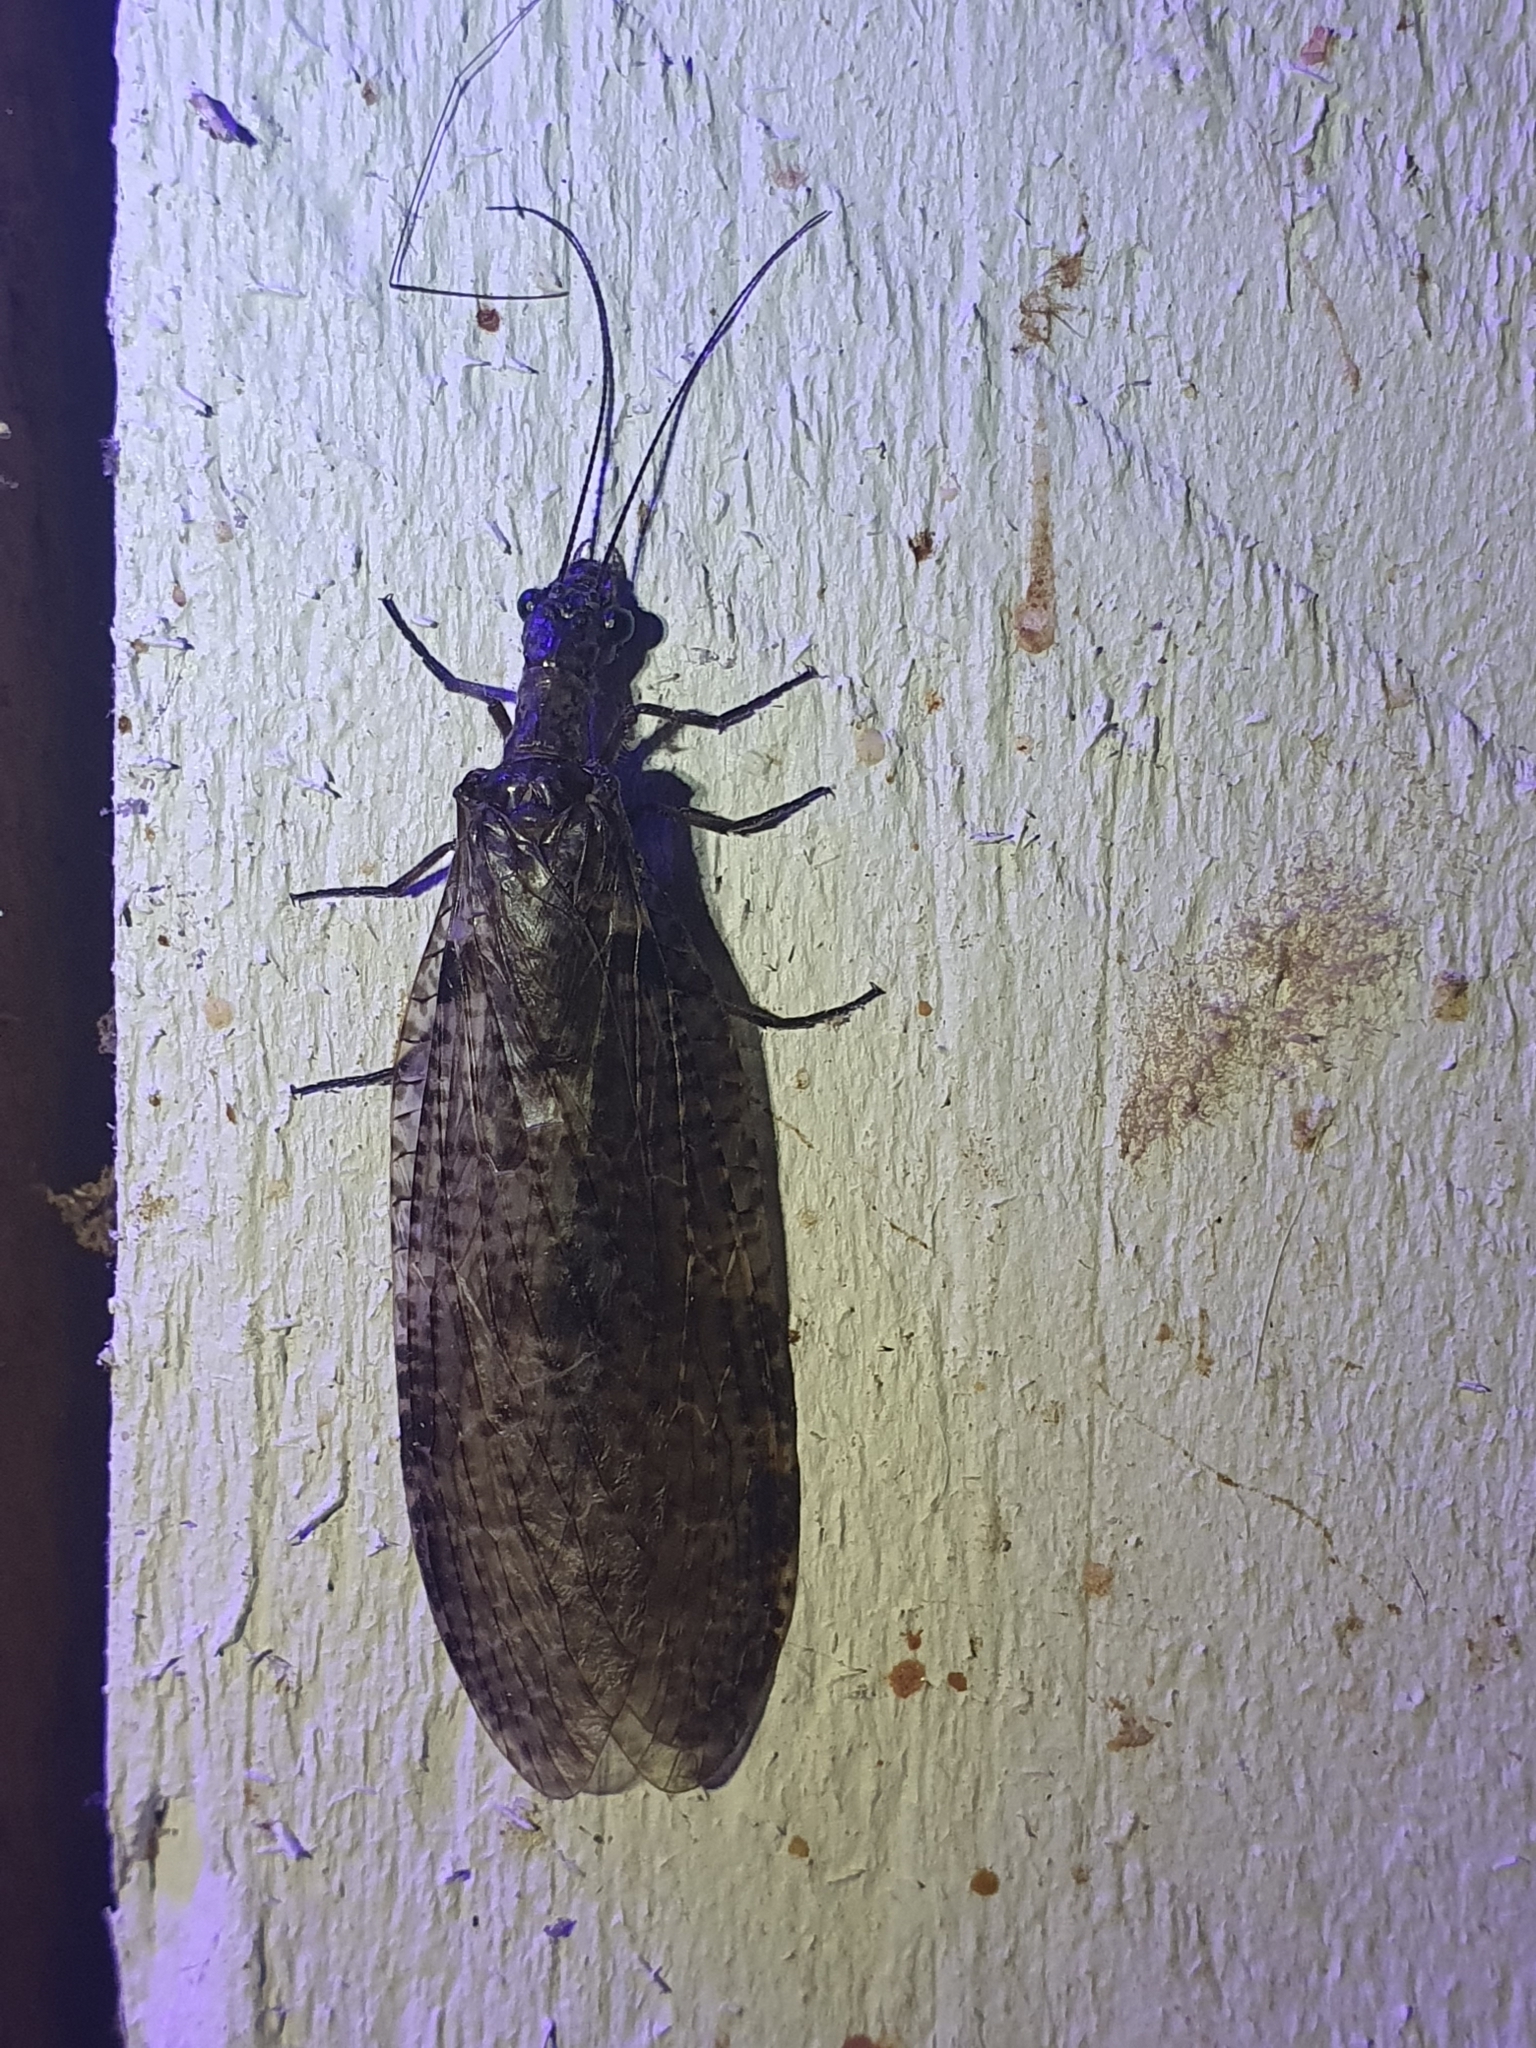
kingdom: Animalia
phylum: Arthropoda
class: Insecta
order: Megaloptera
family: Corydalidae
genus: Archichauliodes
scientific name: Archichauliodes diversus
